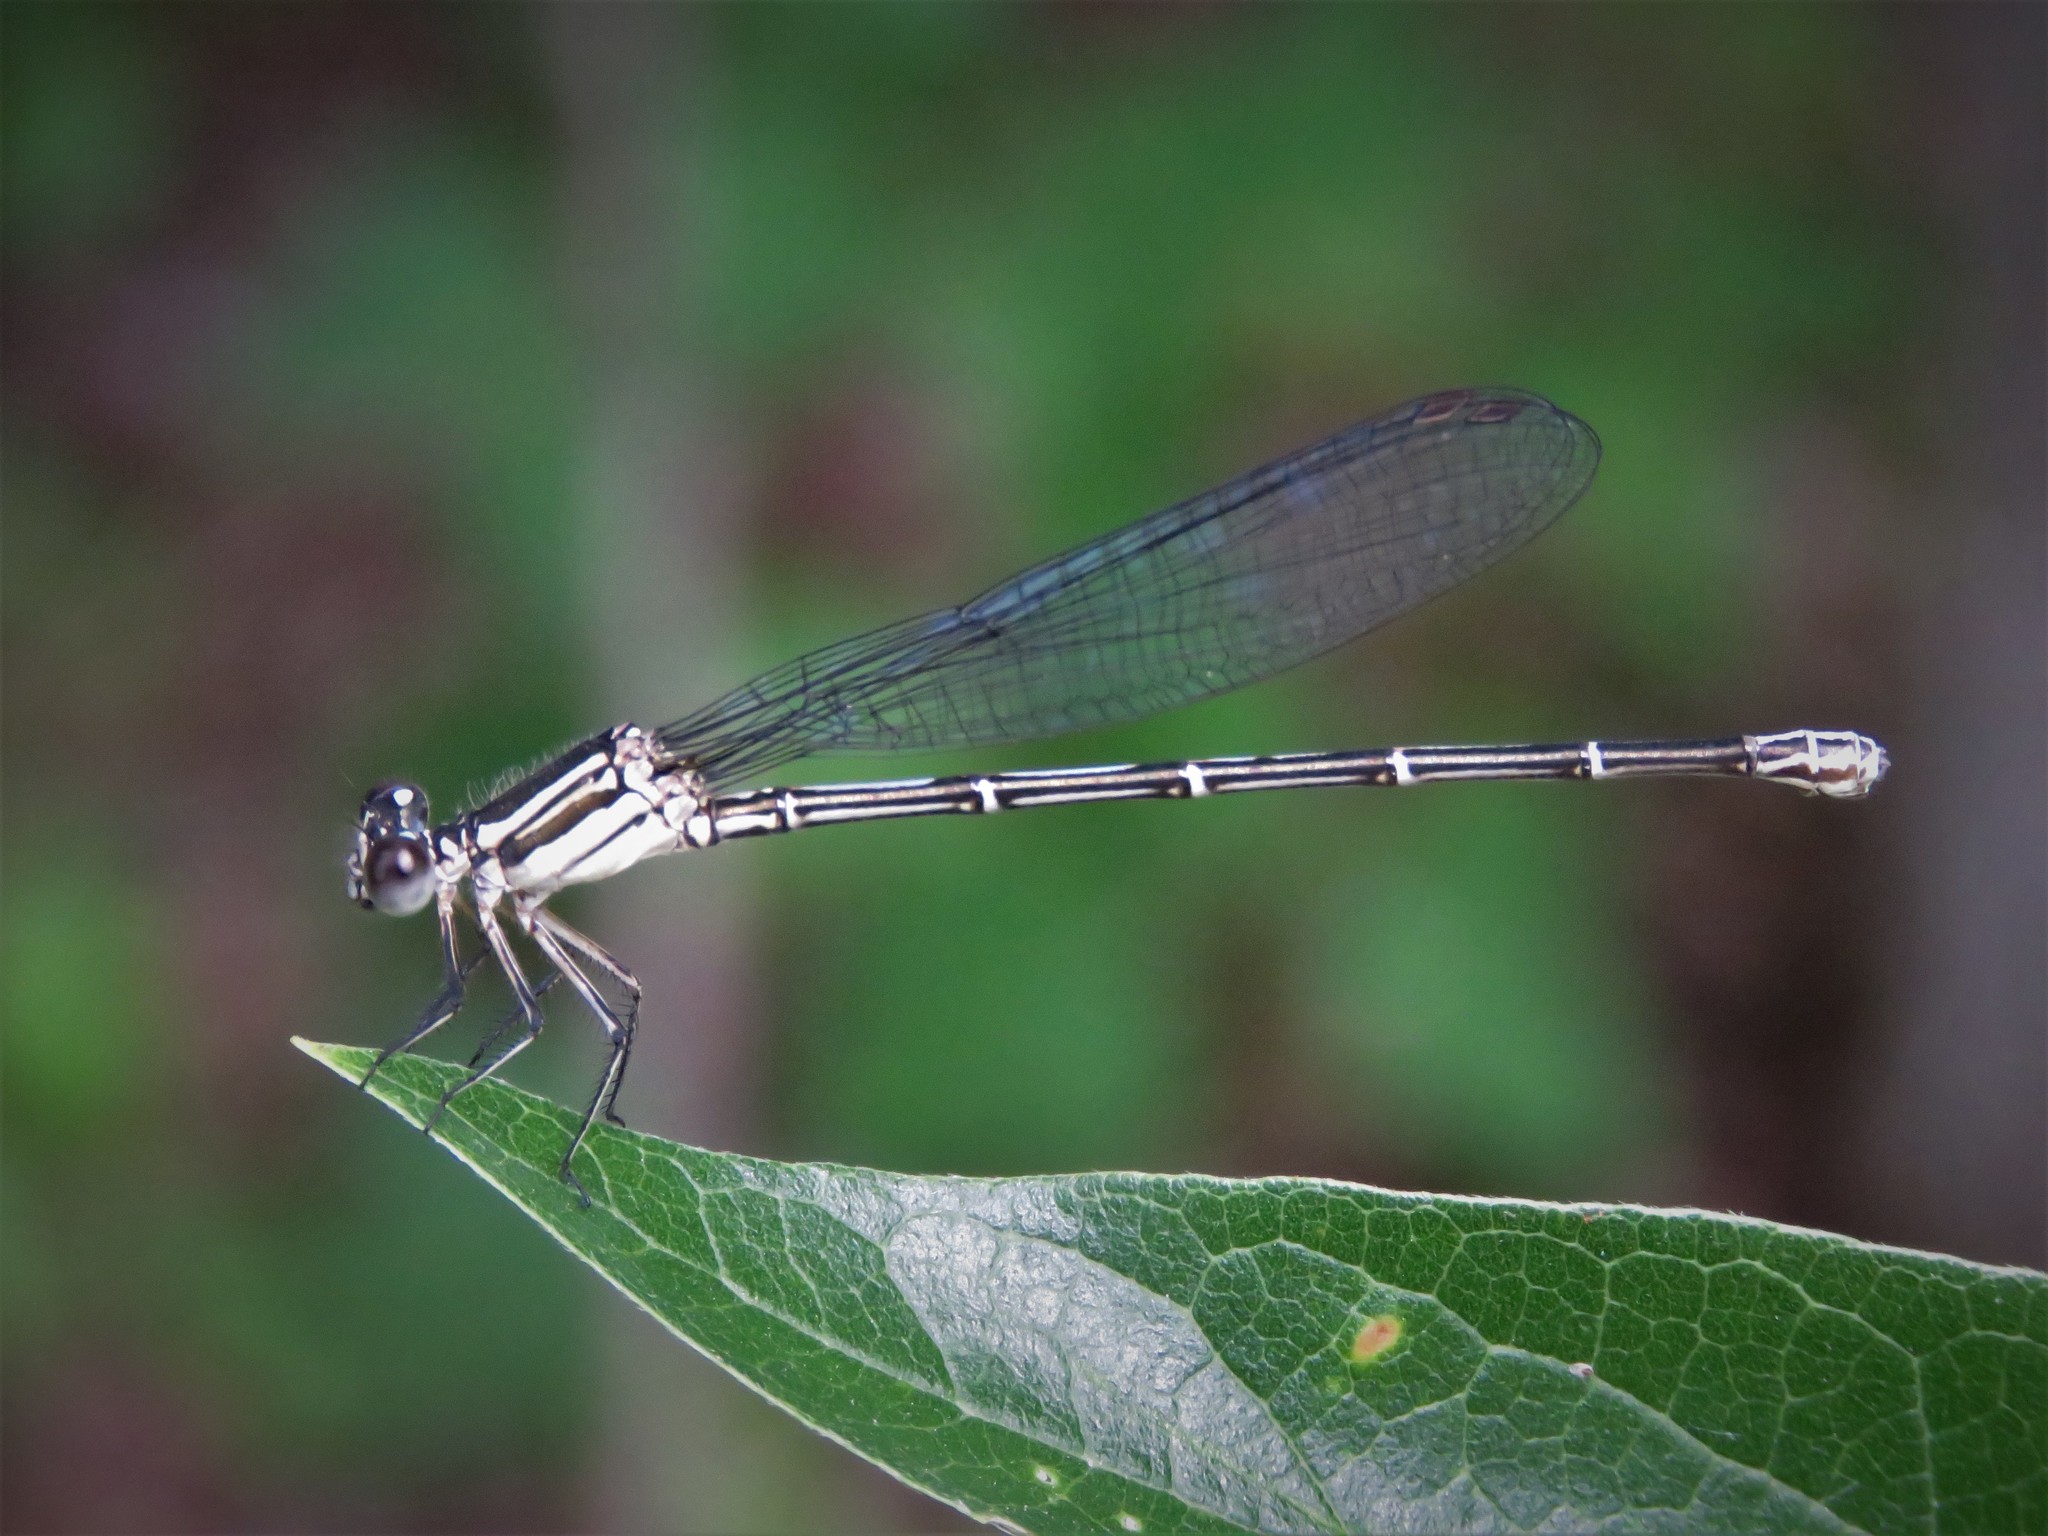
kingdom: Animalia
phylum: Arthropoda
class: Insecta
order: Odonata
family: Coenagrionidae
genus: Argia
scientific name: Argia translata
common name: Dusky dancer
